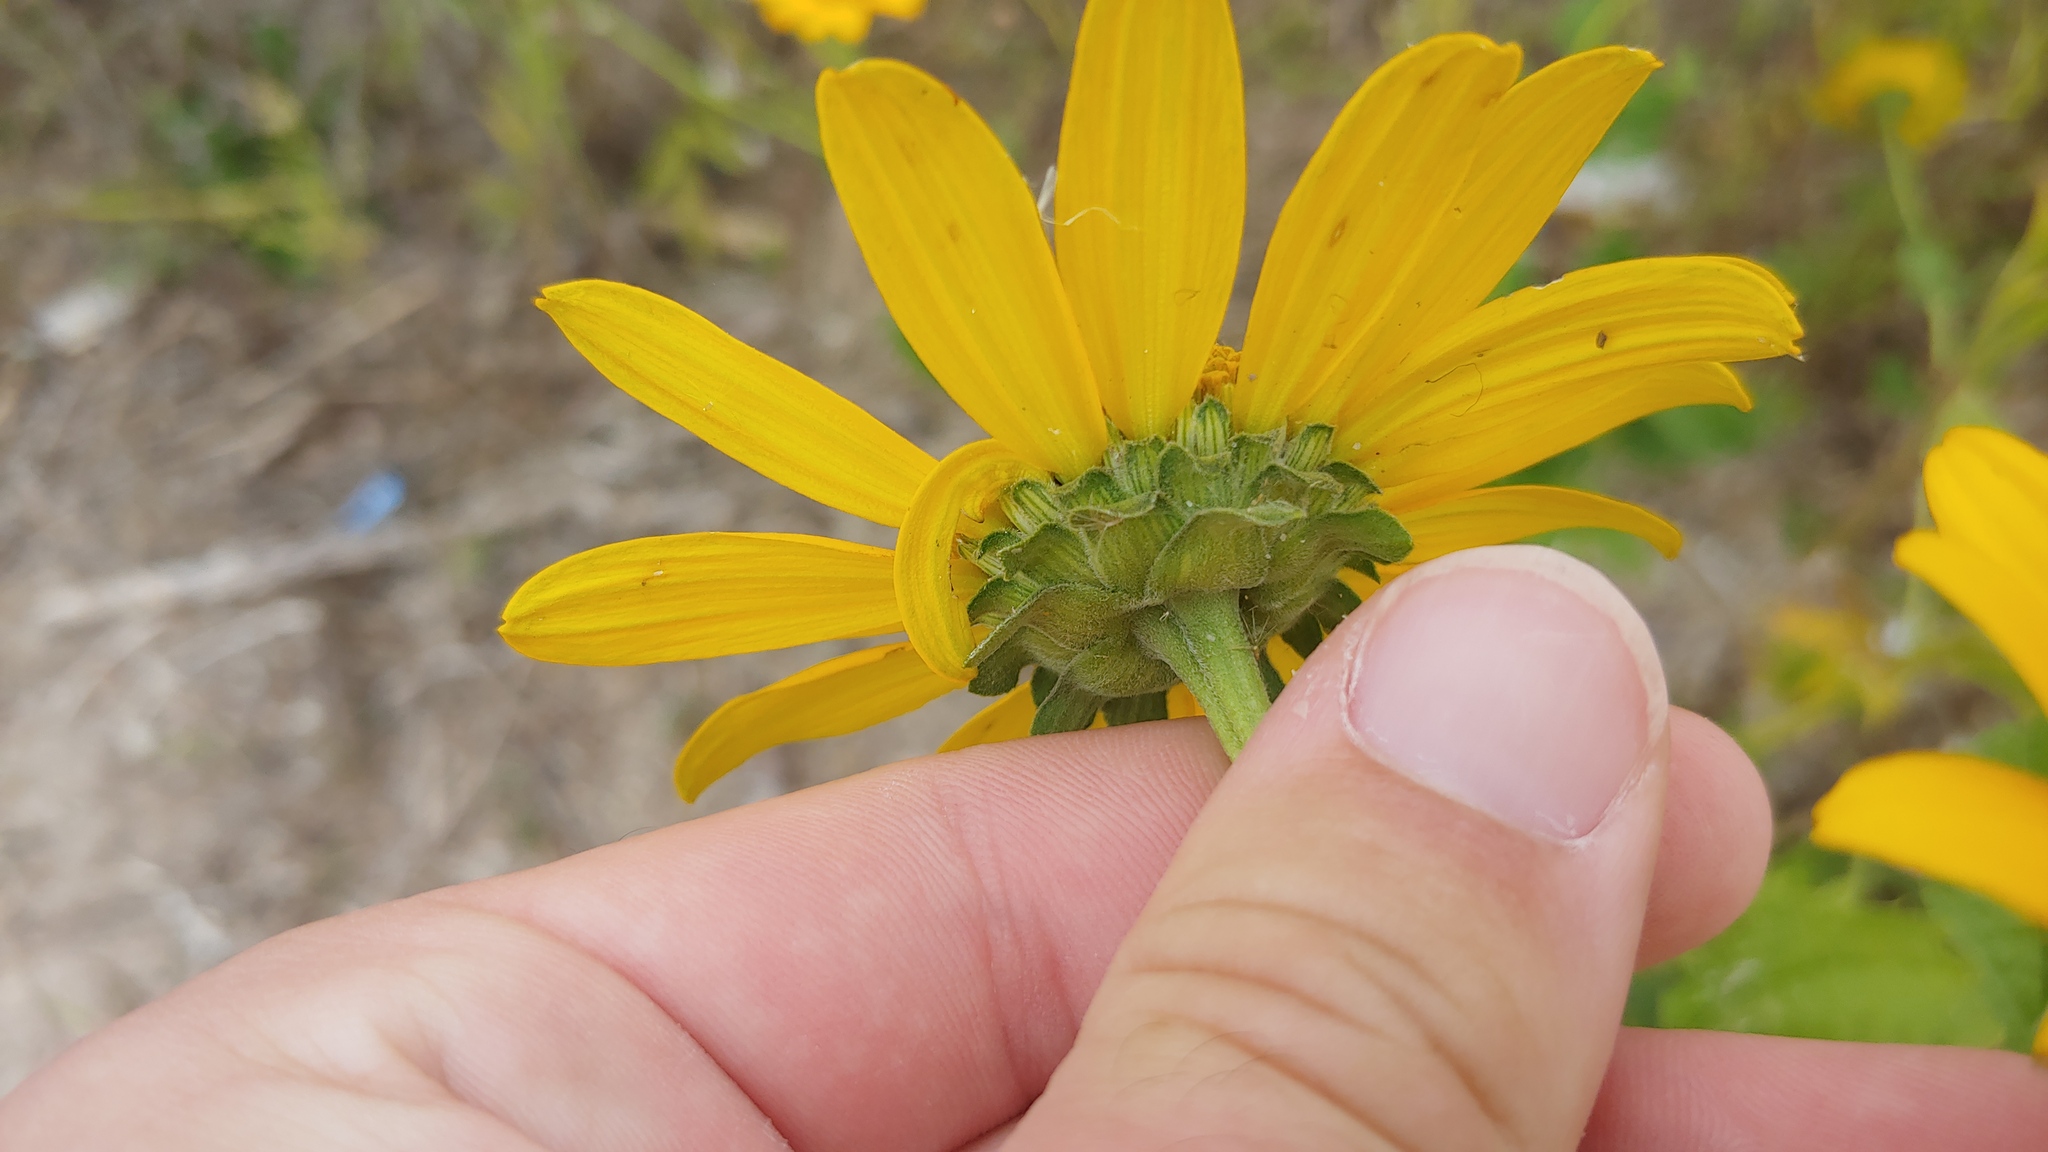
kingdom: Plantae
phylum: Tracheophyta
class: Magnoliopsida
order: Asterales
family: Asteraceae
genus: Heliopsis
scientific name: Heliopsis helianthoides
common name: False sunflower
